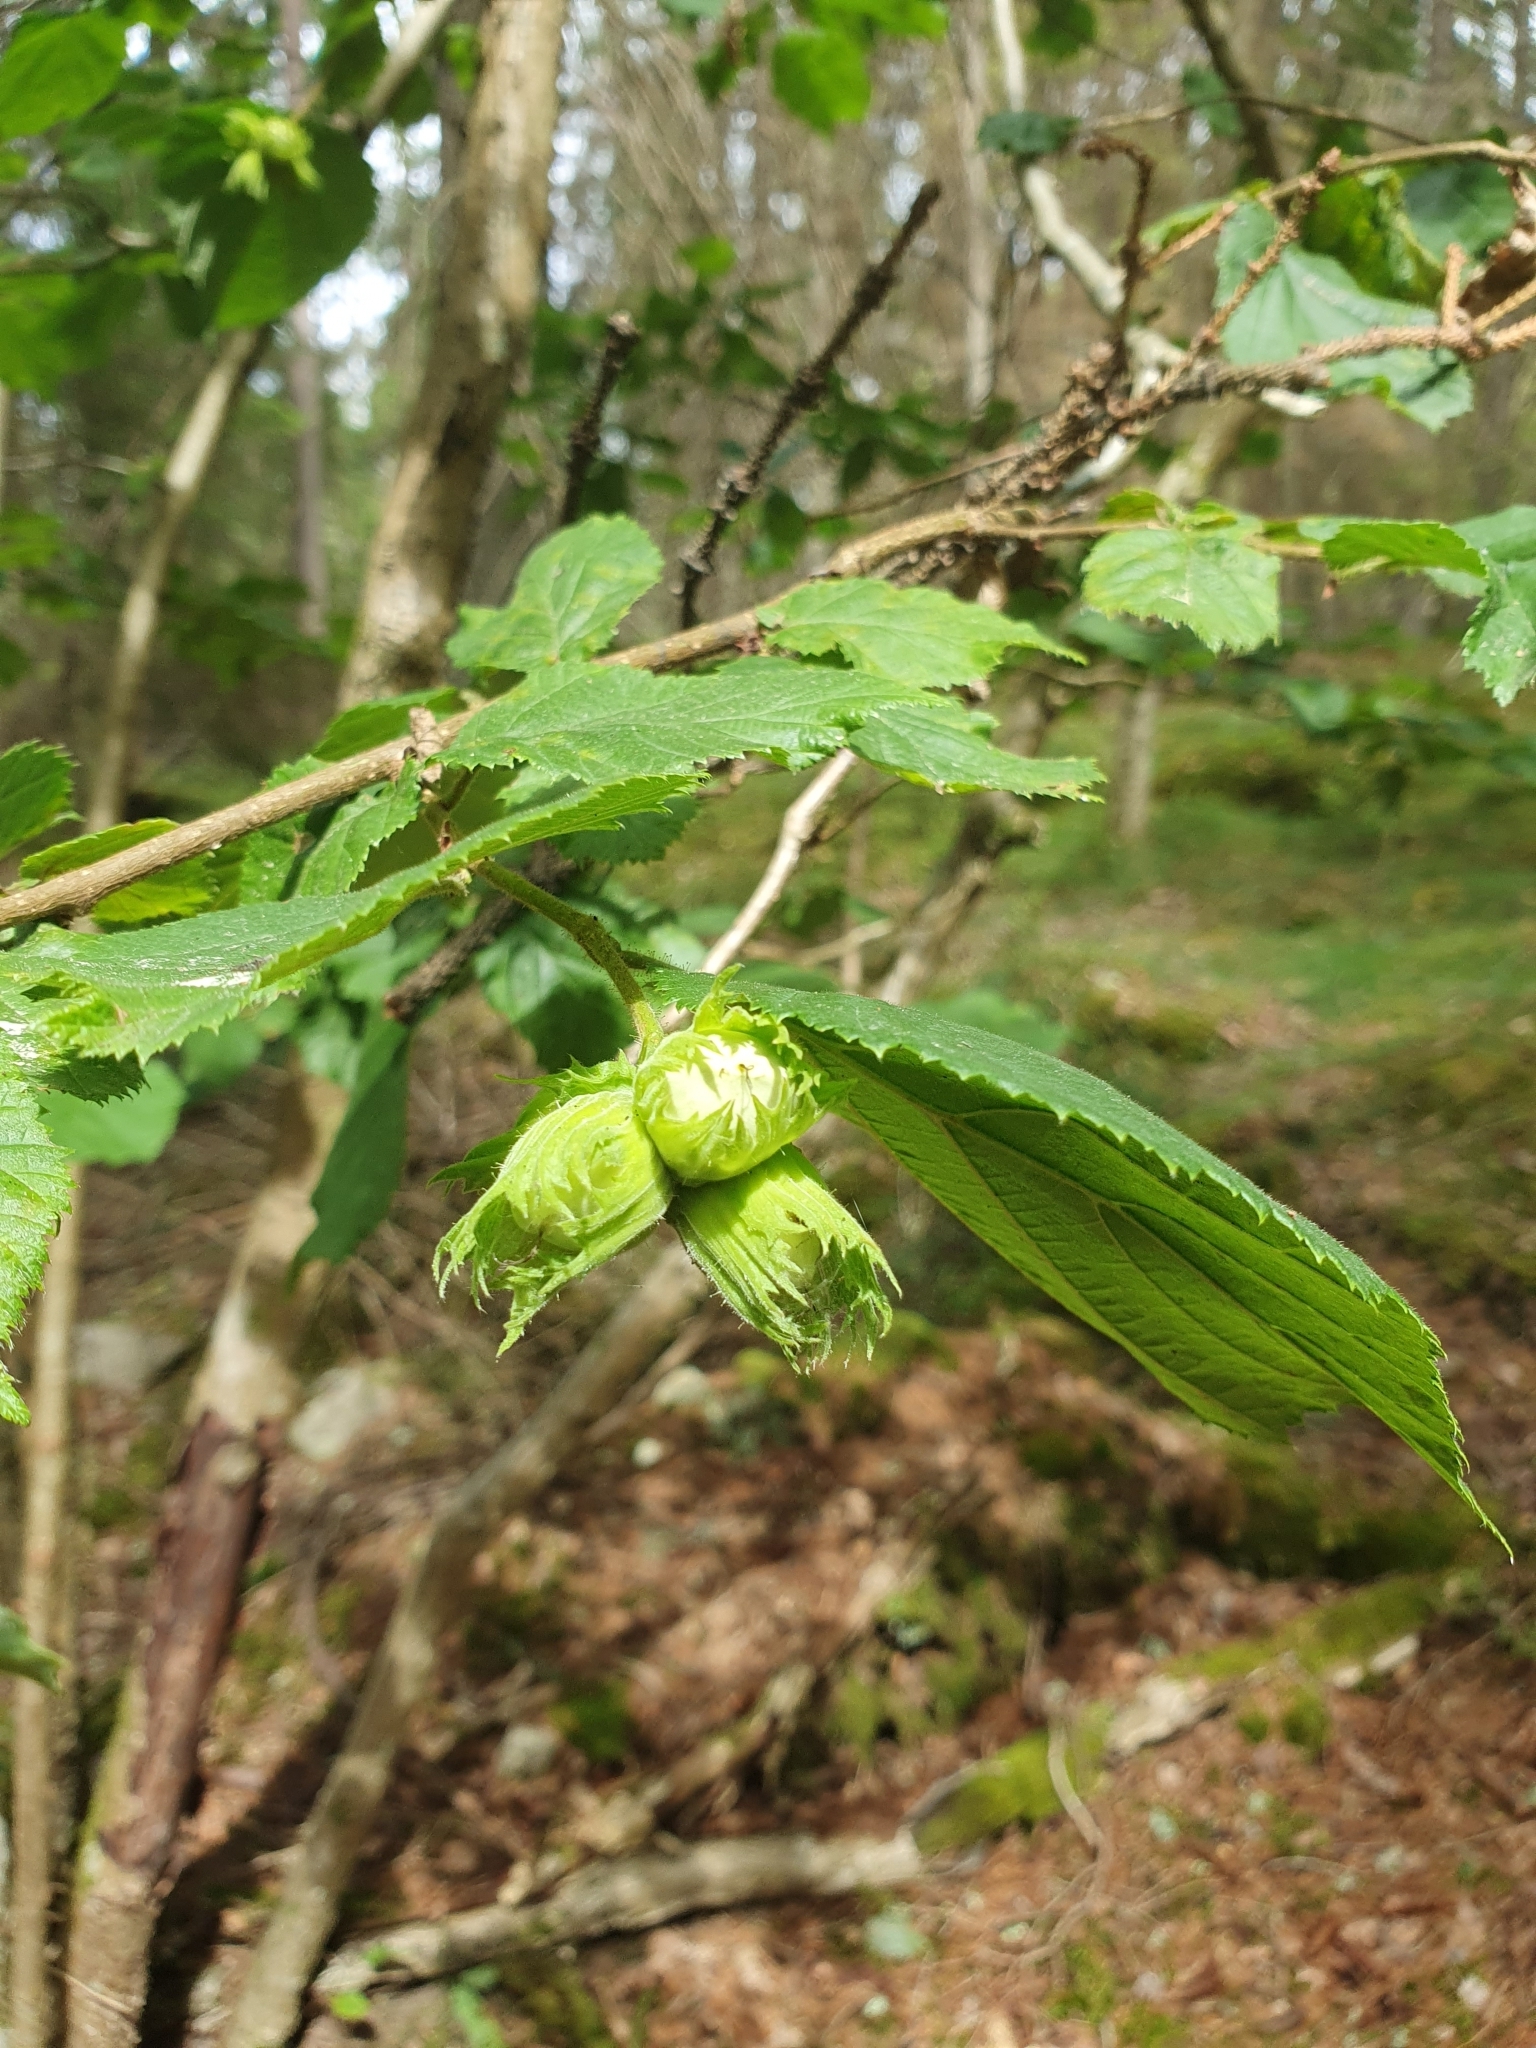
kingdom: Plantae
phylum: Tracheophyta
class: Magnoliopsida
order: Fagales
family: Betulaceae
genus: Corylus
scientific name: Corylus avellana
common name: European hazel
